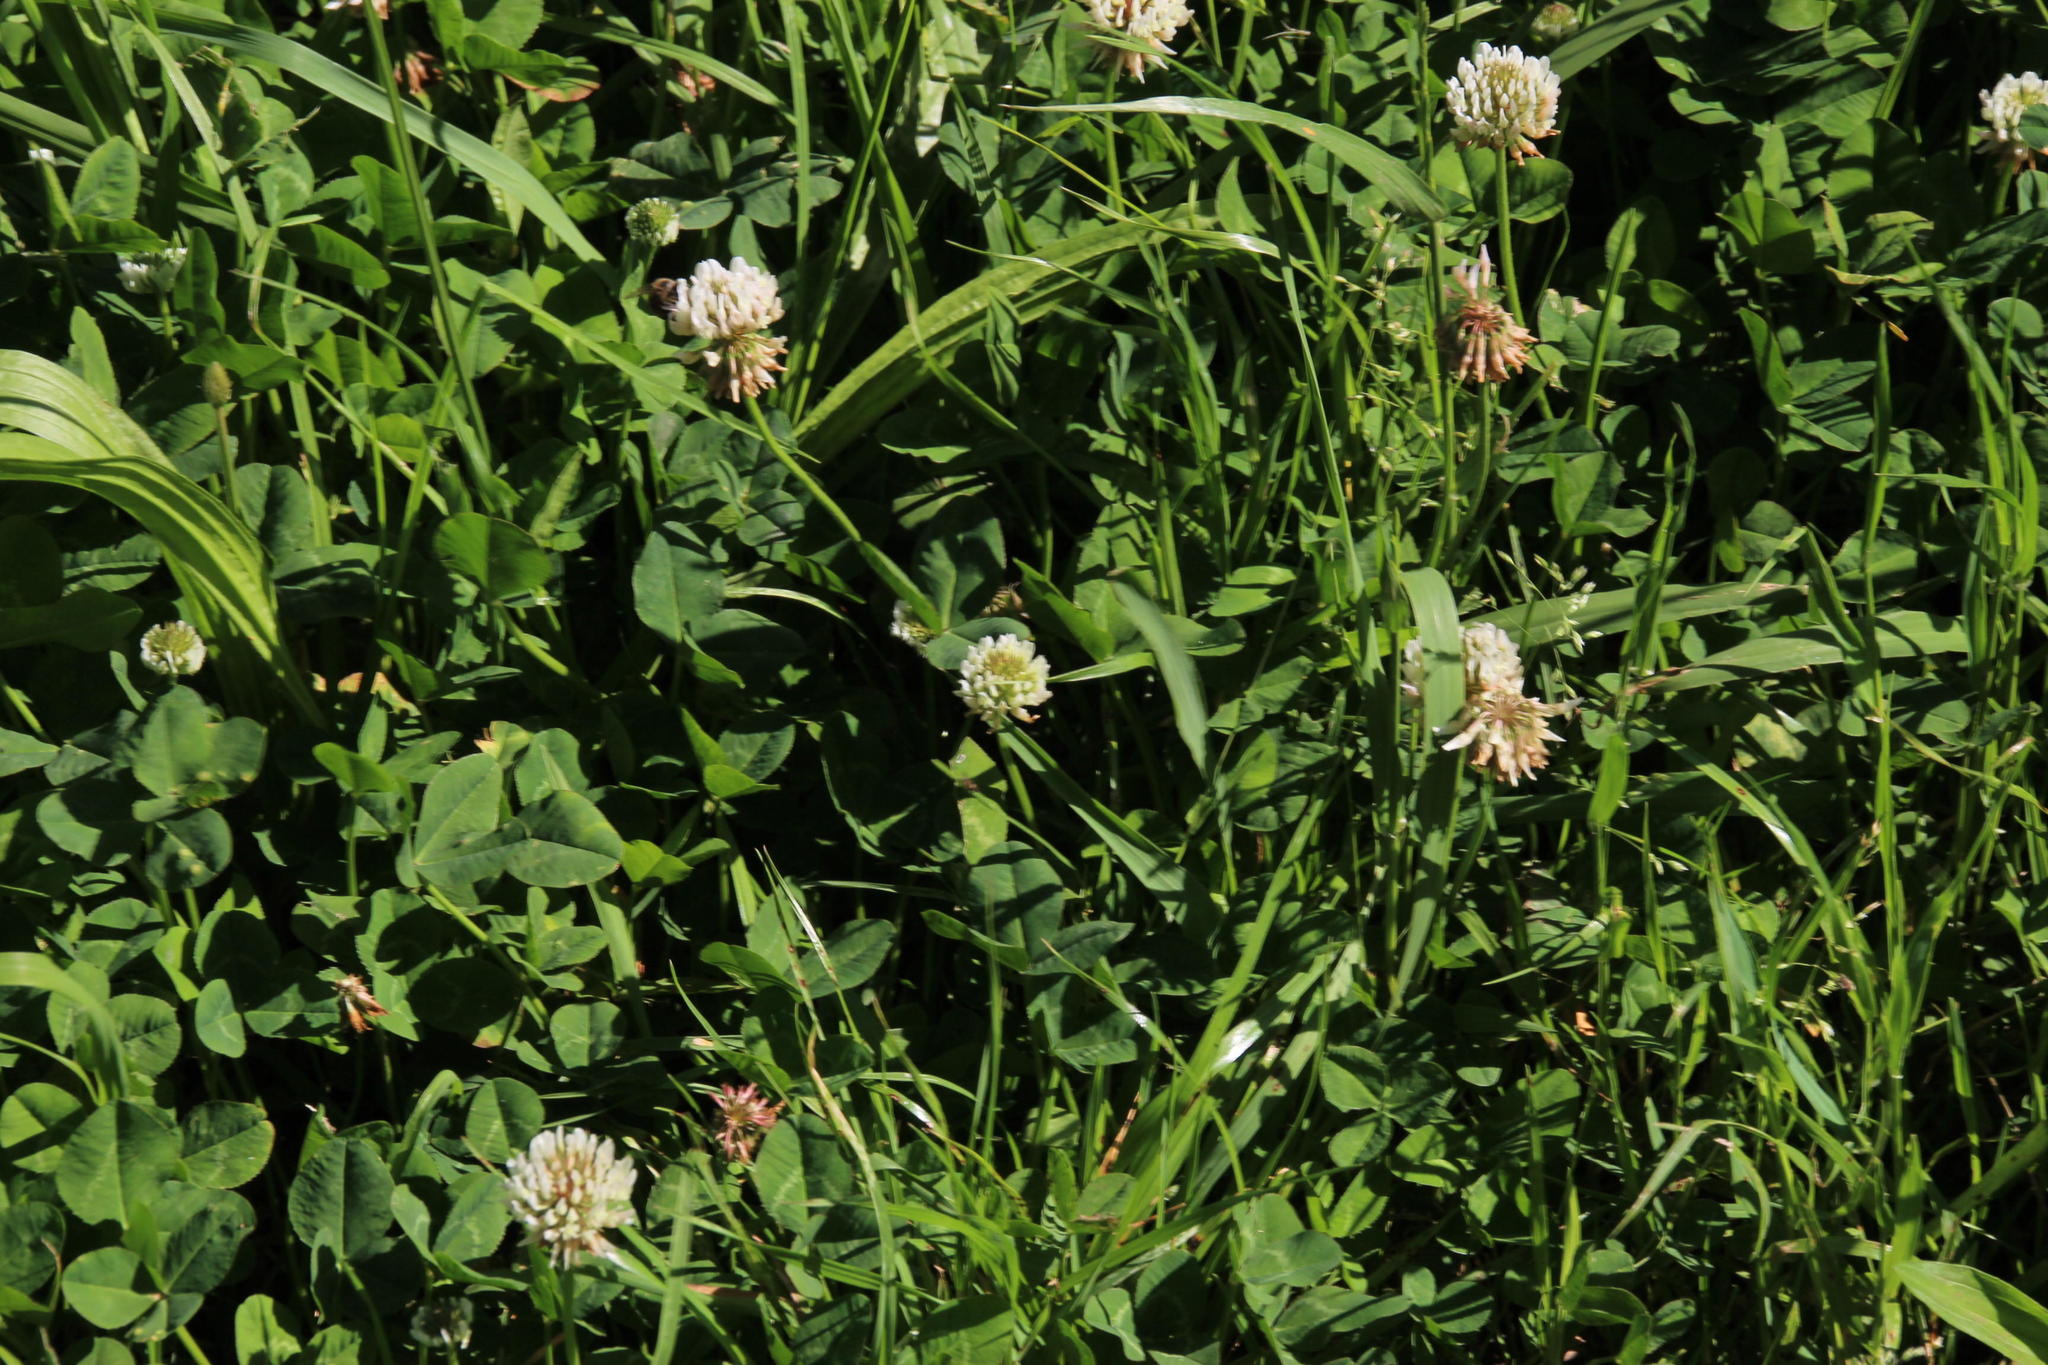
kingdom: Plantae
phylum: Tracheophyta
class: Magnoliopsida
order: Fabales
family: Fabaceae
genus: Trifolium
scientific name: Trifolium repens
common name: White clover
